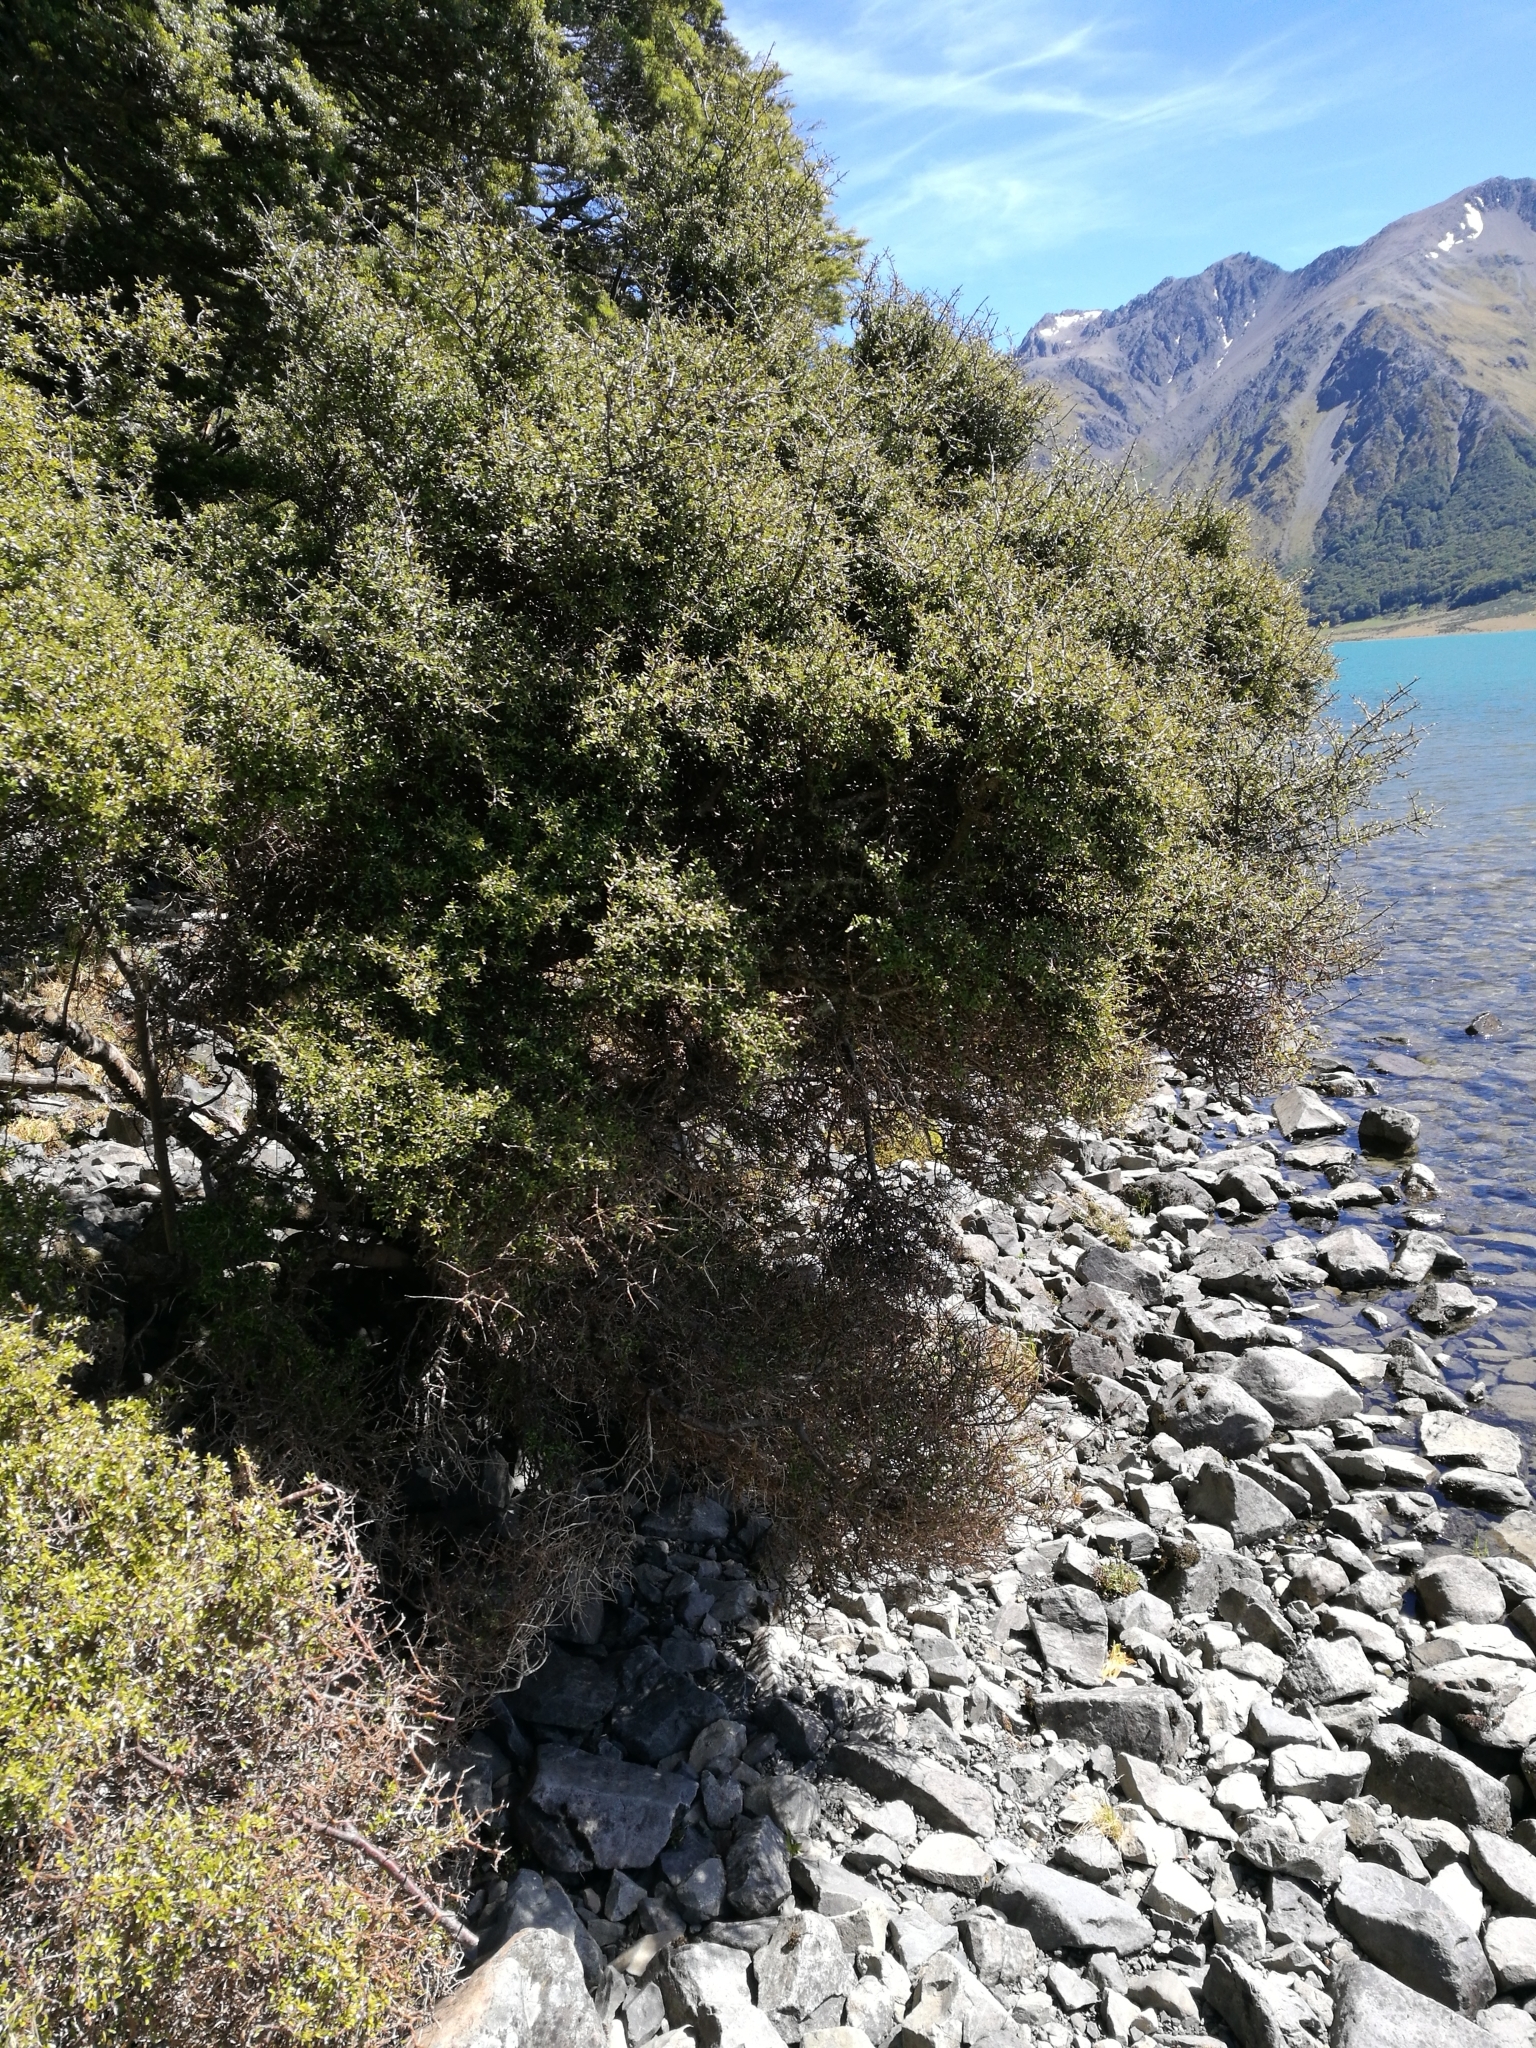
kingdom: Plantae
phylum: Tracheophyta
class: Magnoliopsida
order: Gentianales
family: Rubiaceae
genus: Coprosma
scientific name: Coprosma propinqua
